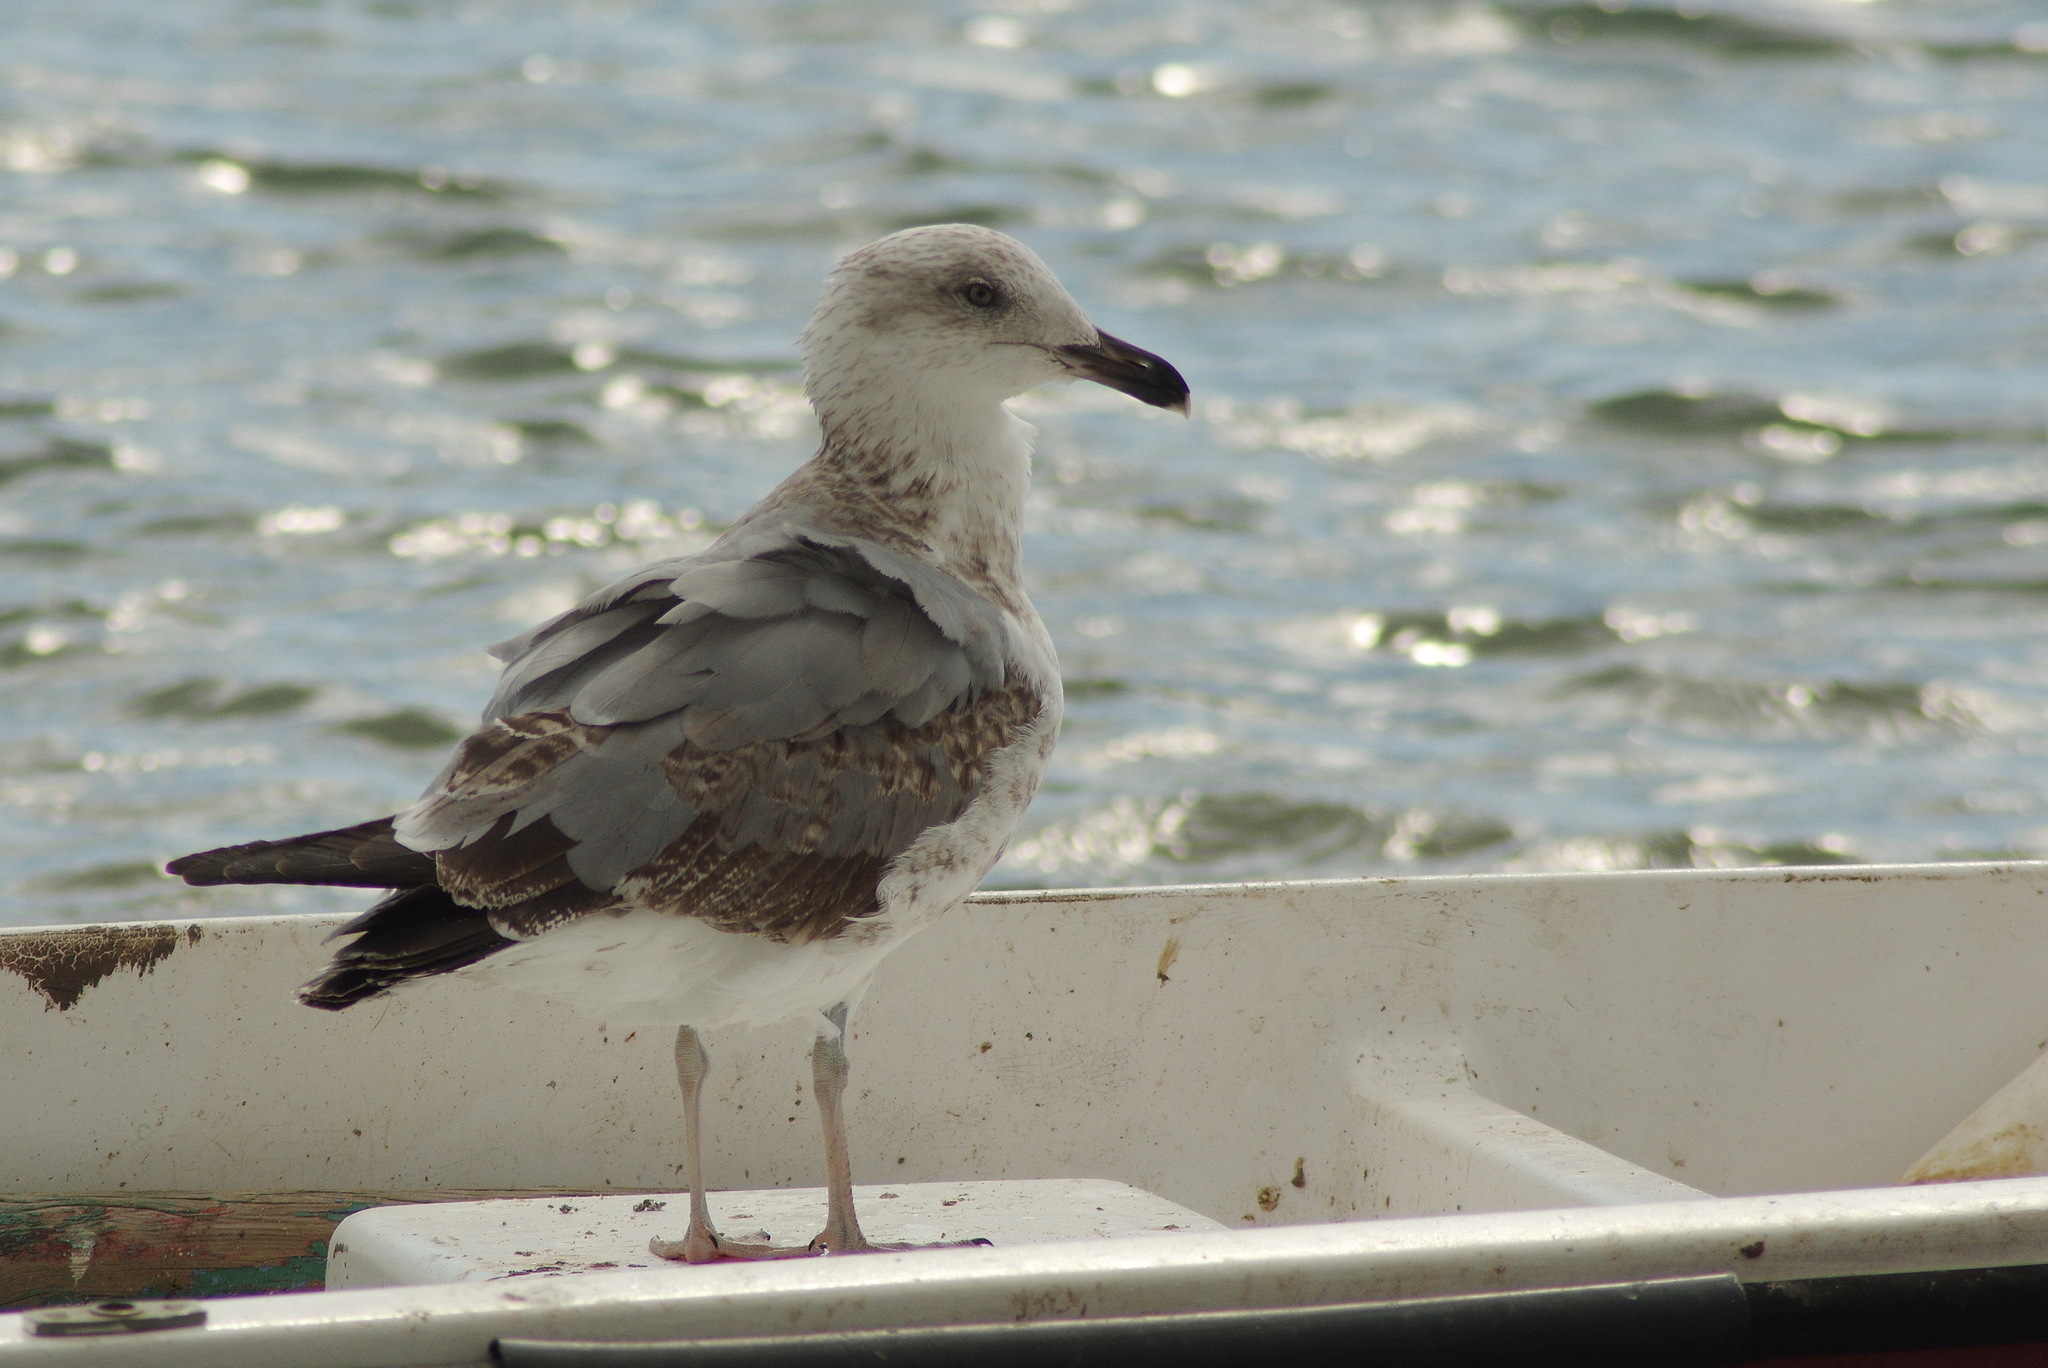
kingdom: Animalia
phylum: Chordata
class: Aves
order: Charadriiformes
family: Laridae
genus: Larus
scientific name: Larus michahellis
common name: Yellow-legged gull
